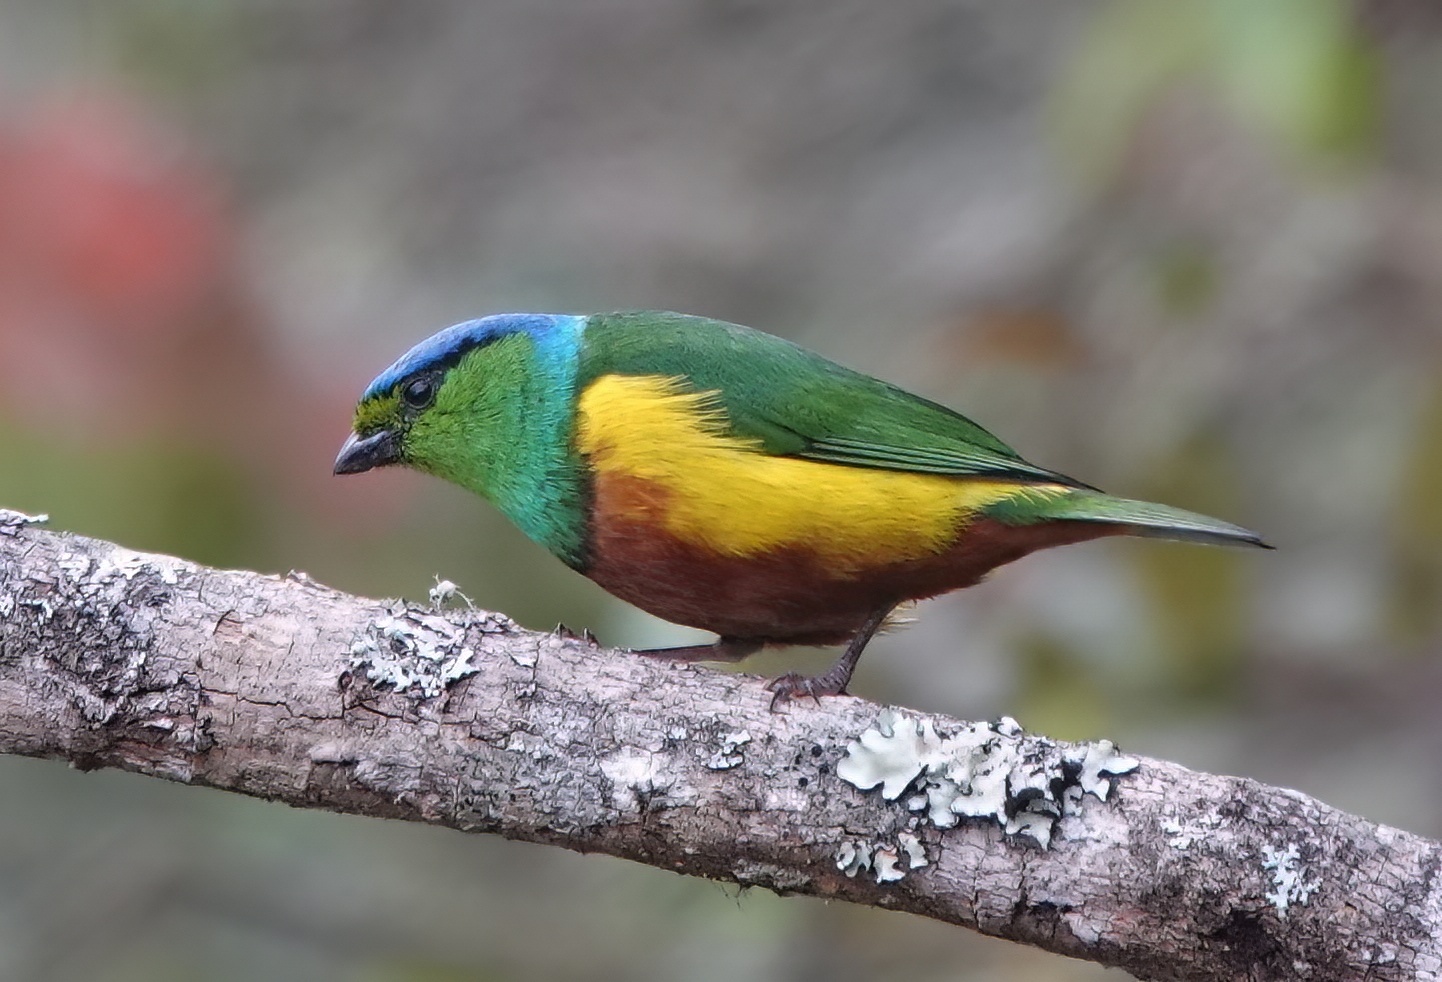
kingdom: Animalia
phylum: Chordata
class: Aves
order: Passeriformes
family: Fringillidae
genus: Chlorophonia
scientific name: Chlorophonia pyrrhophrys
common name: Chestnut-breasted chlorophonia
